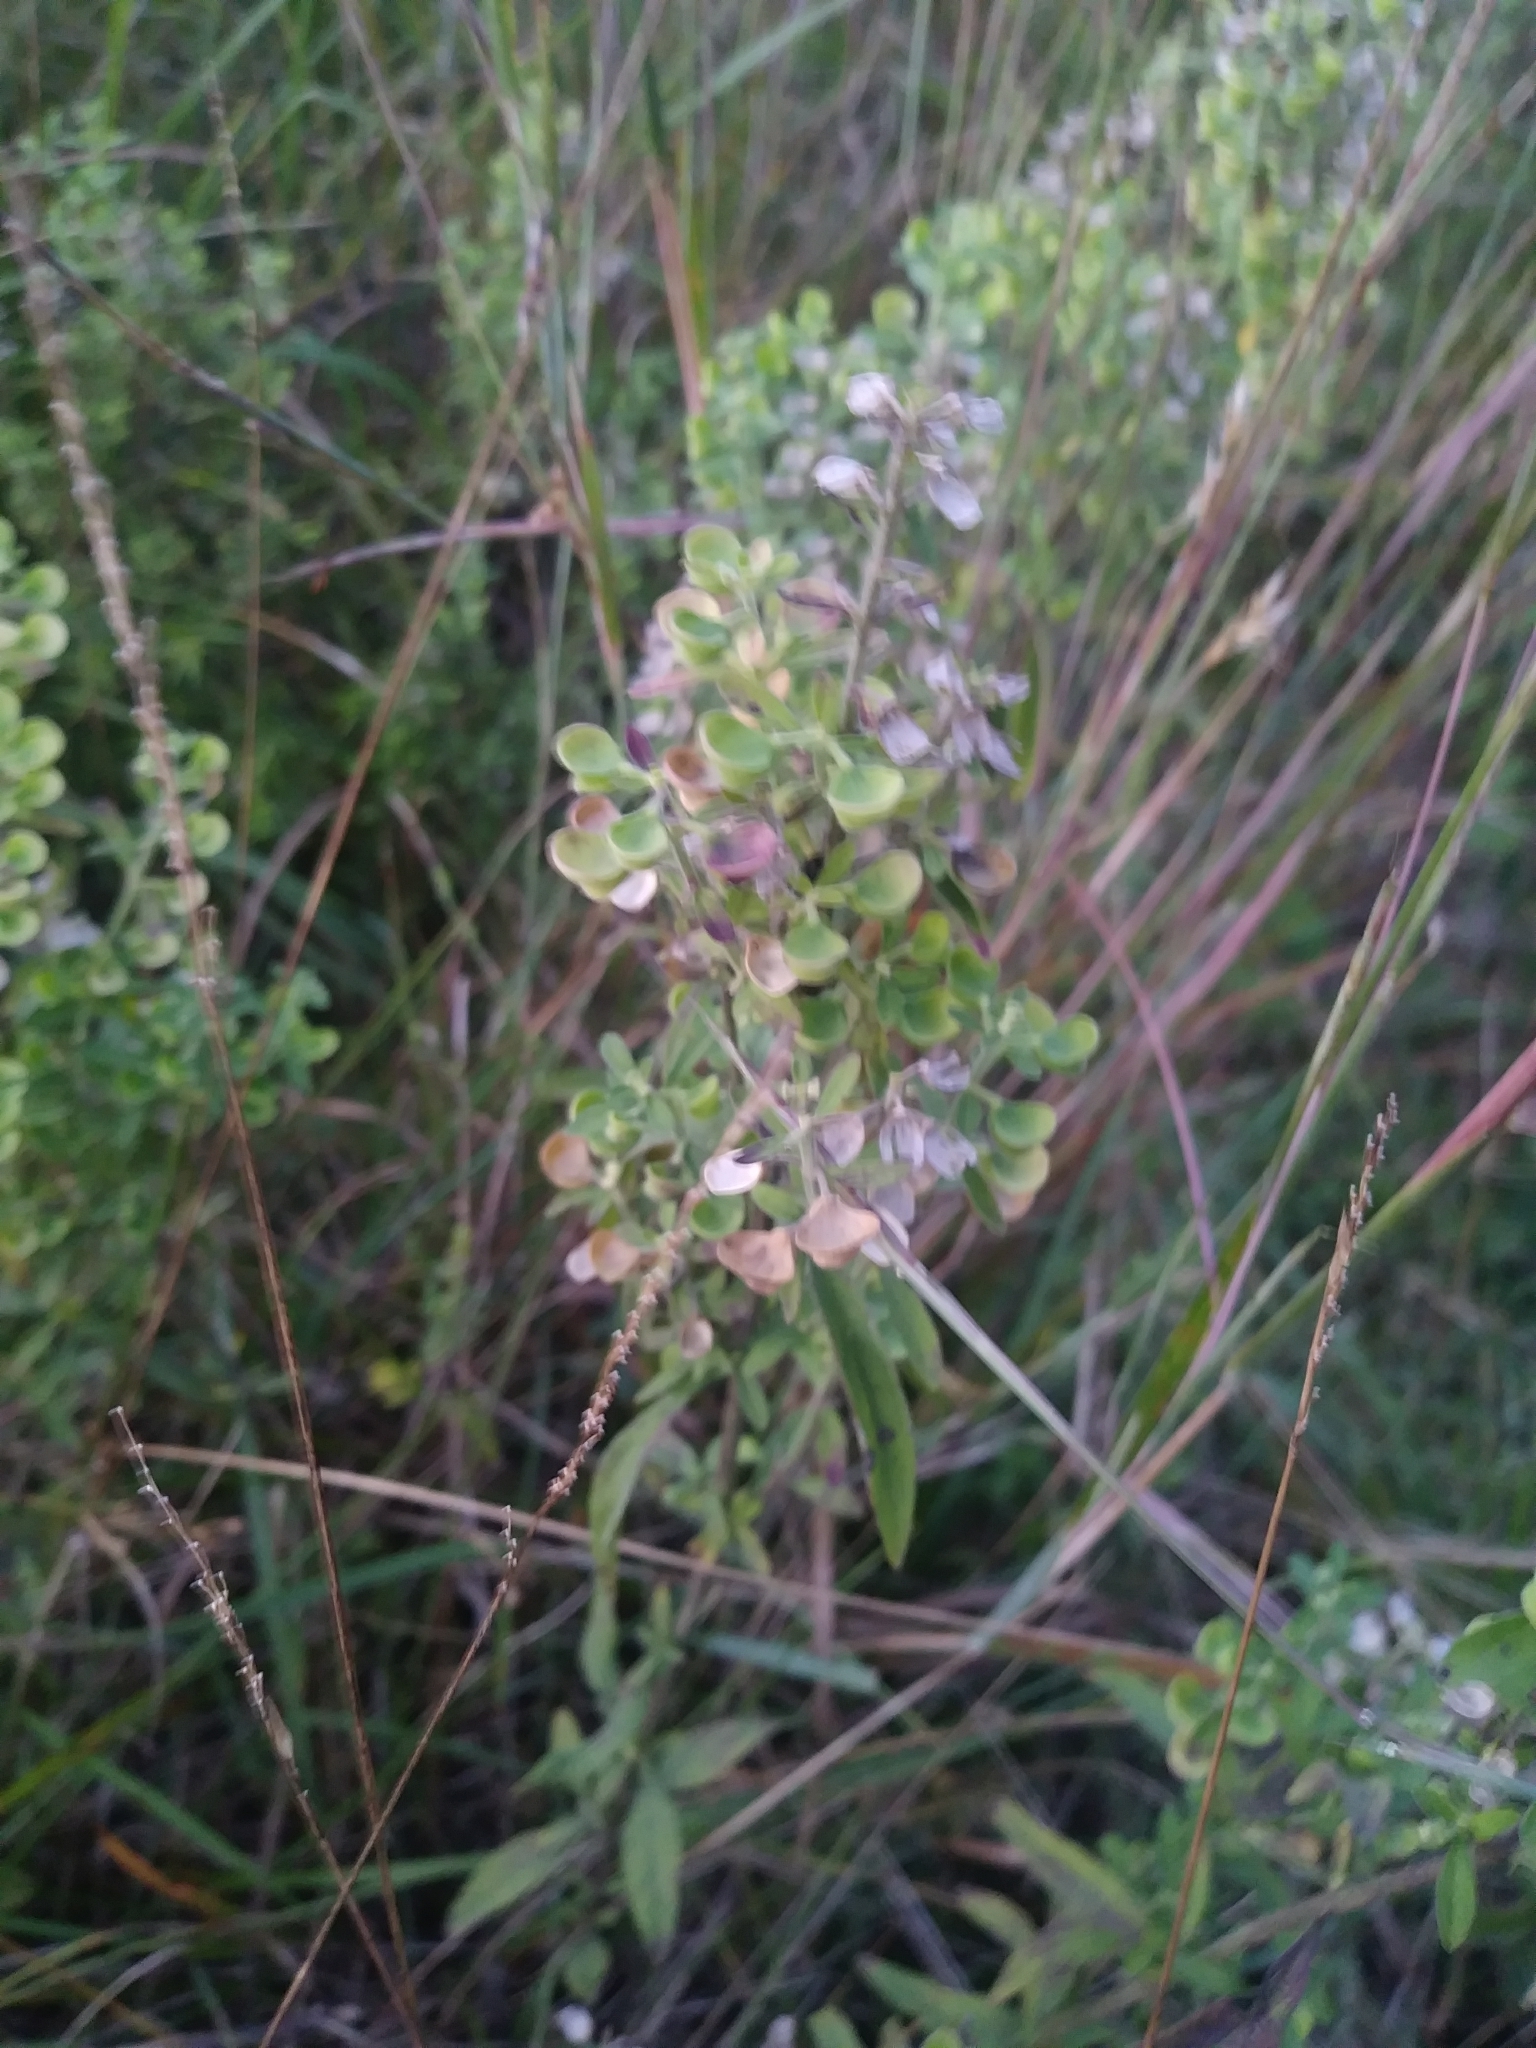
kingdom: Plantae
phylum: Tracheophyta
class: Magnoliopsida
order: Lamiales
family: Lamiaceae
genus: Scutellaria
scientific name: Scutellaria integrifolia
